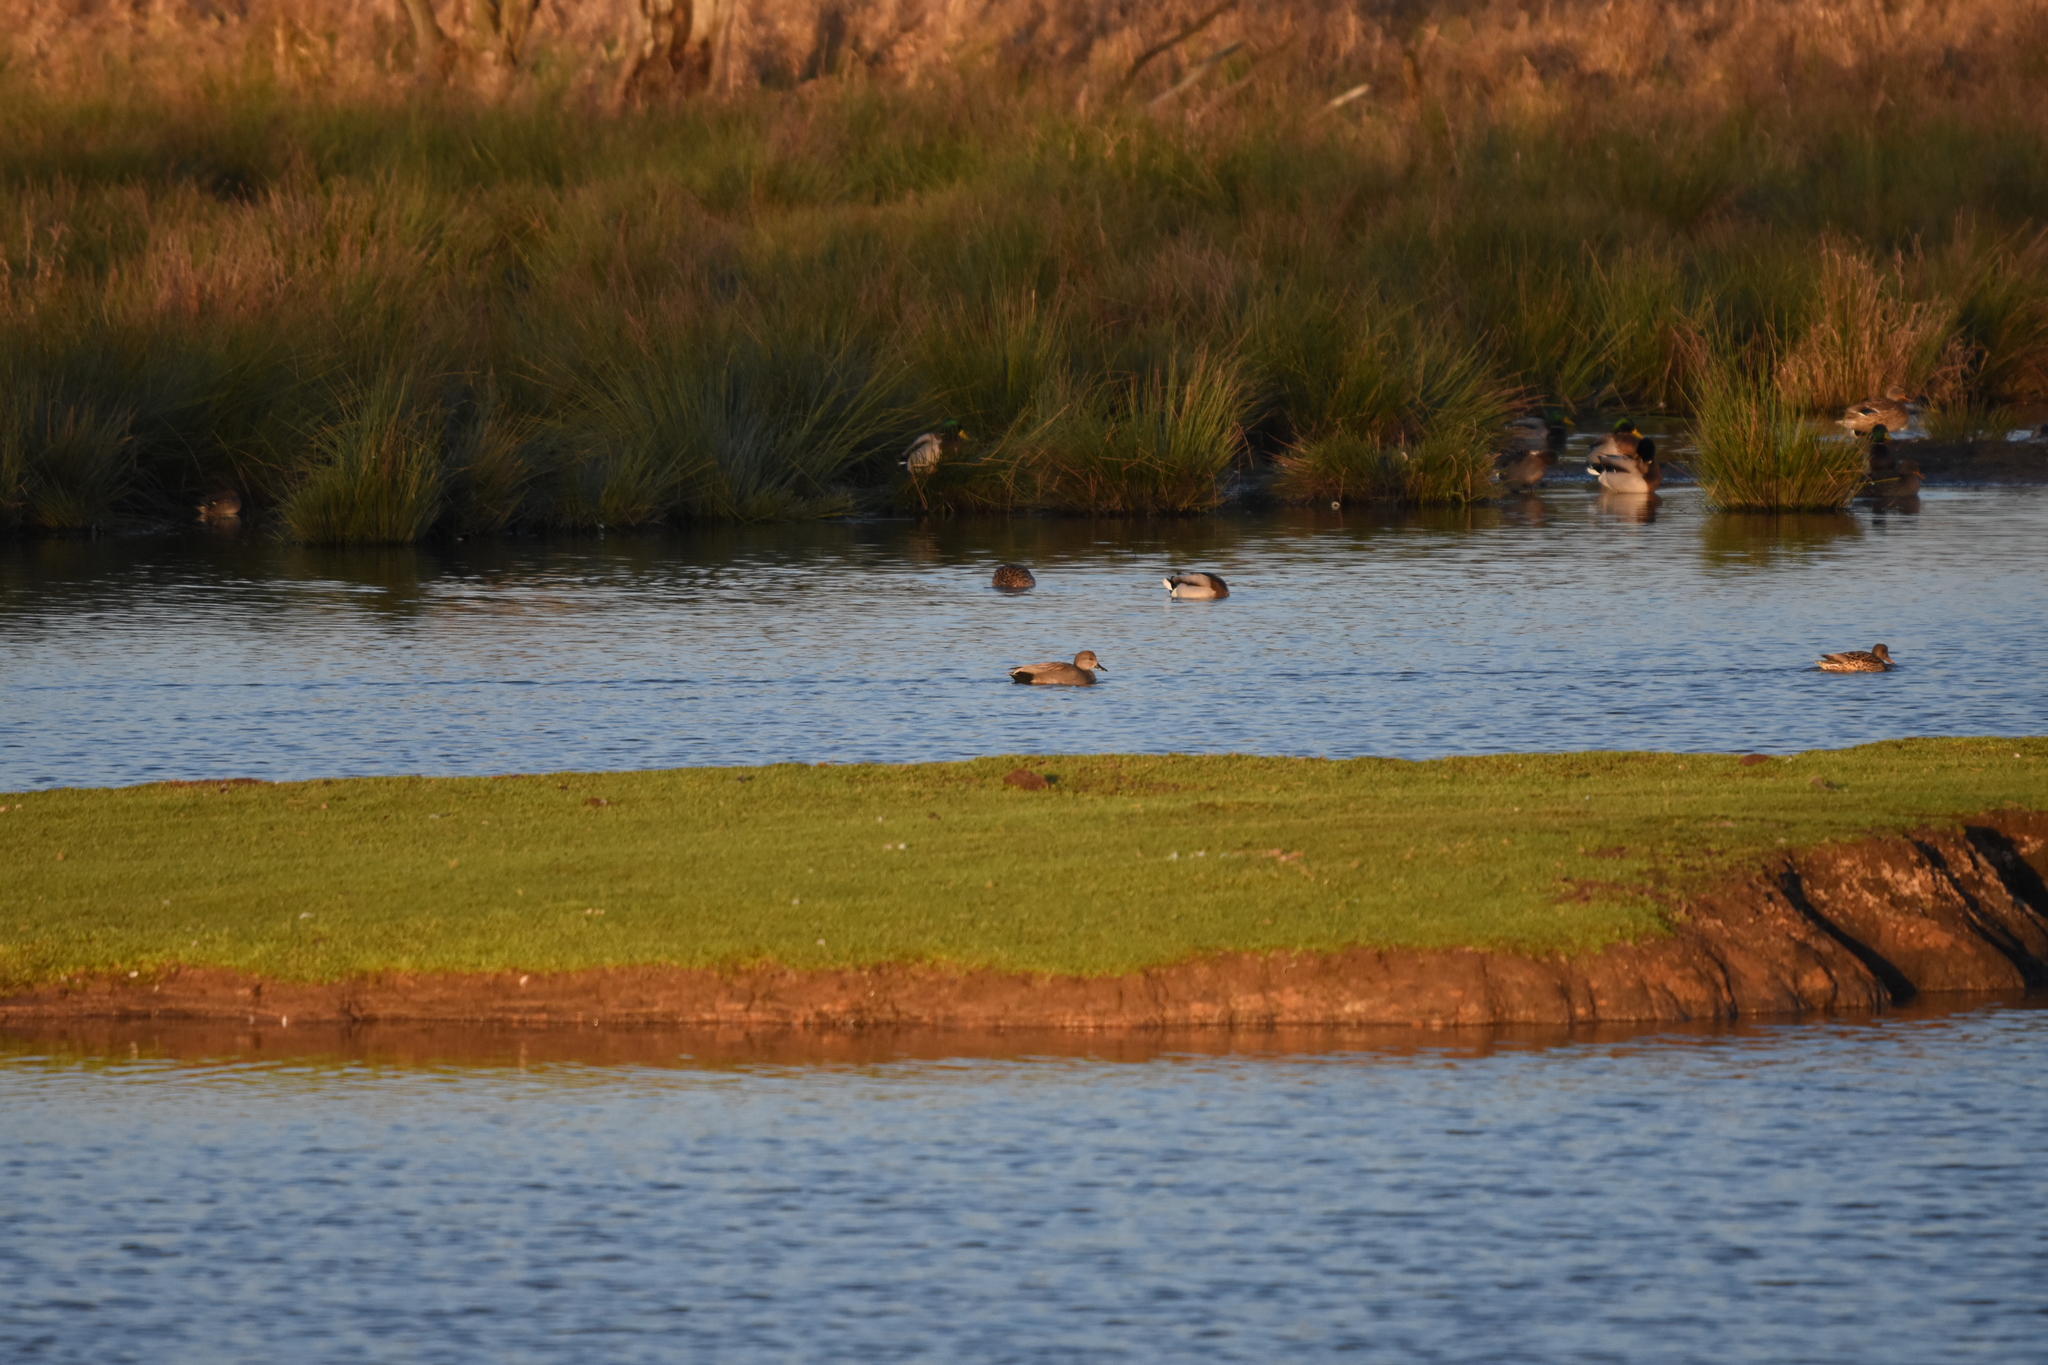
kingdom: Animalia
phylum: Chordata
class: Aves
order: Anseriformes
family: Anatidae
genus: Mareca
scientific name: Mareca strepera
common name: Gadwall
